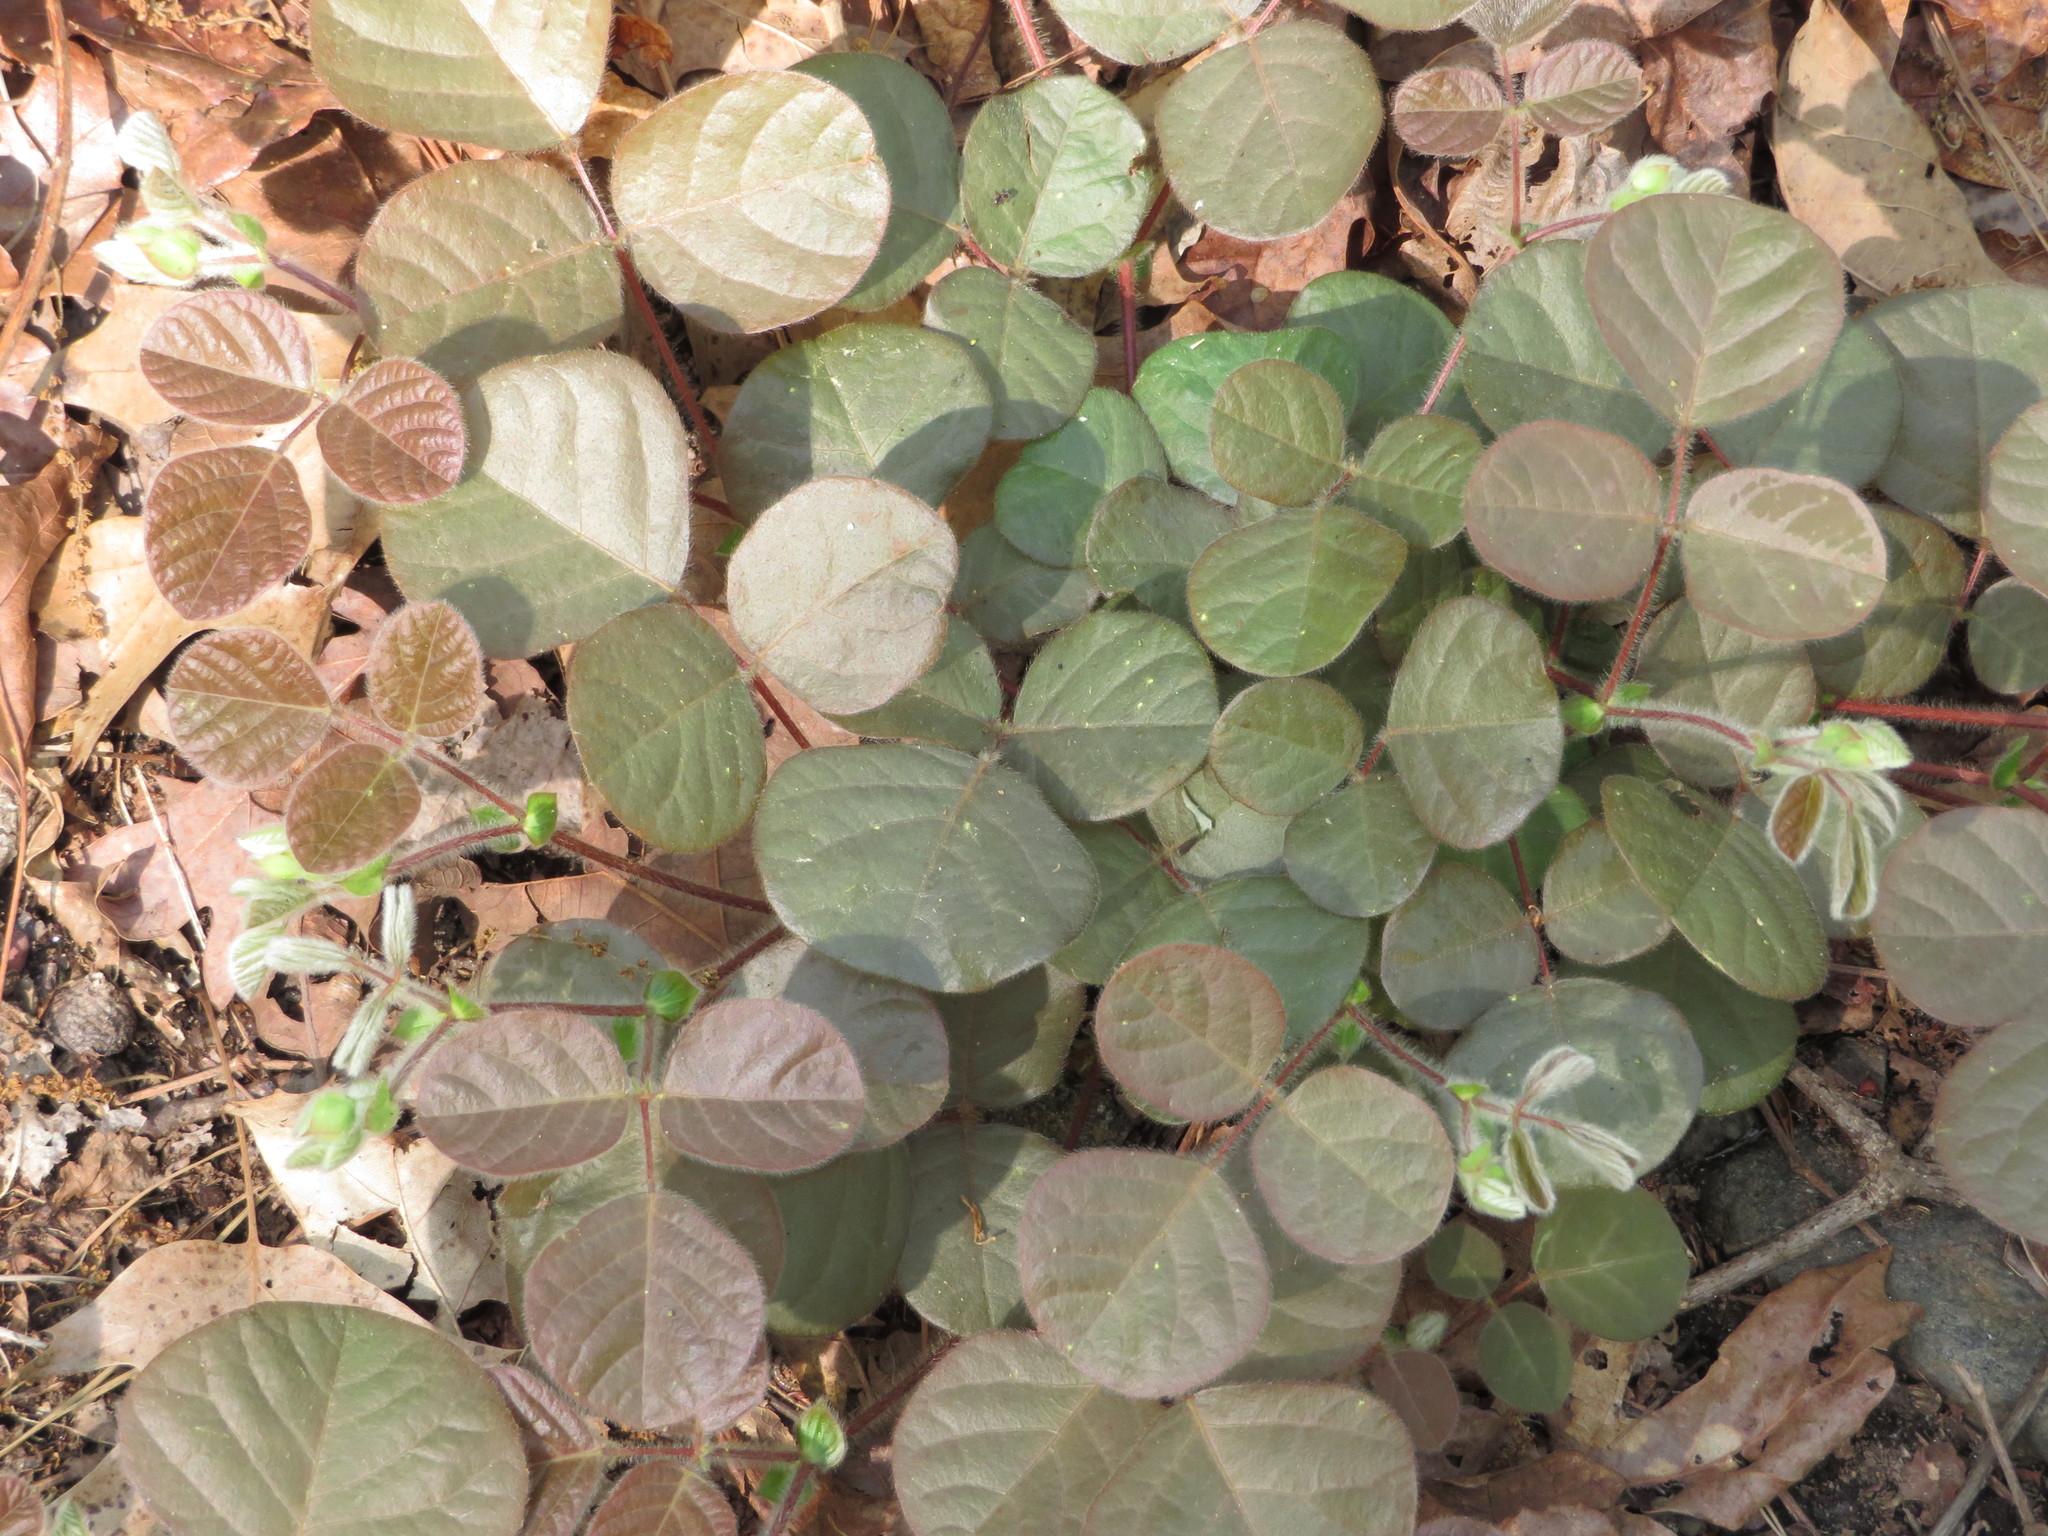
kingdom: Plantae
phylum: Tracheophyta
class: Magnoliopsida
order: Fabales
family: Fabaceae
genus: Desmodium
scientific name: Desmodium rotundifolium
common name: Dollarleaf
